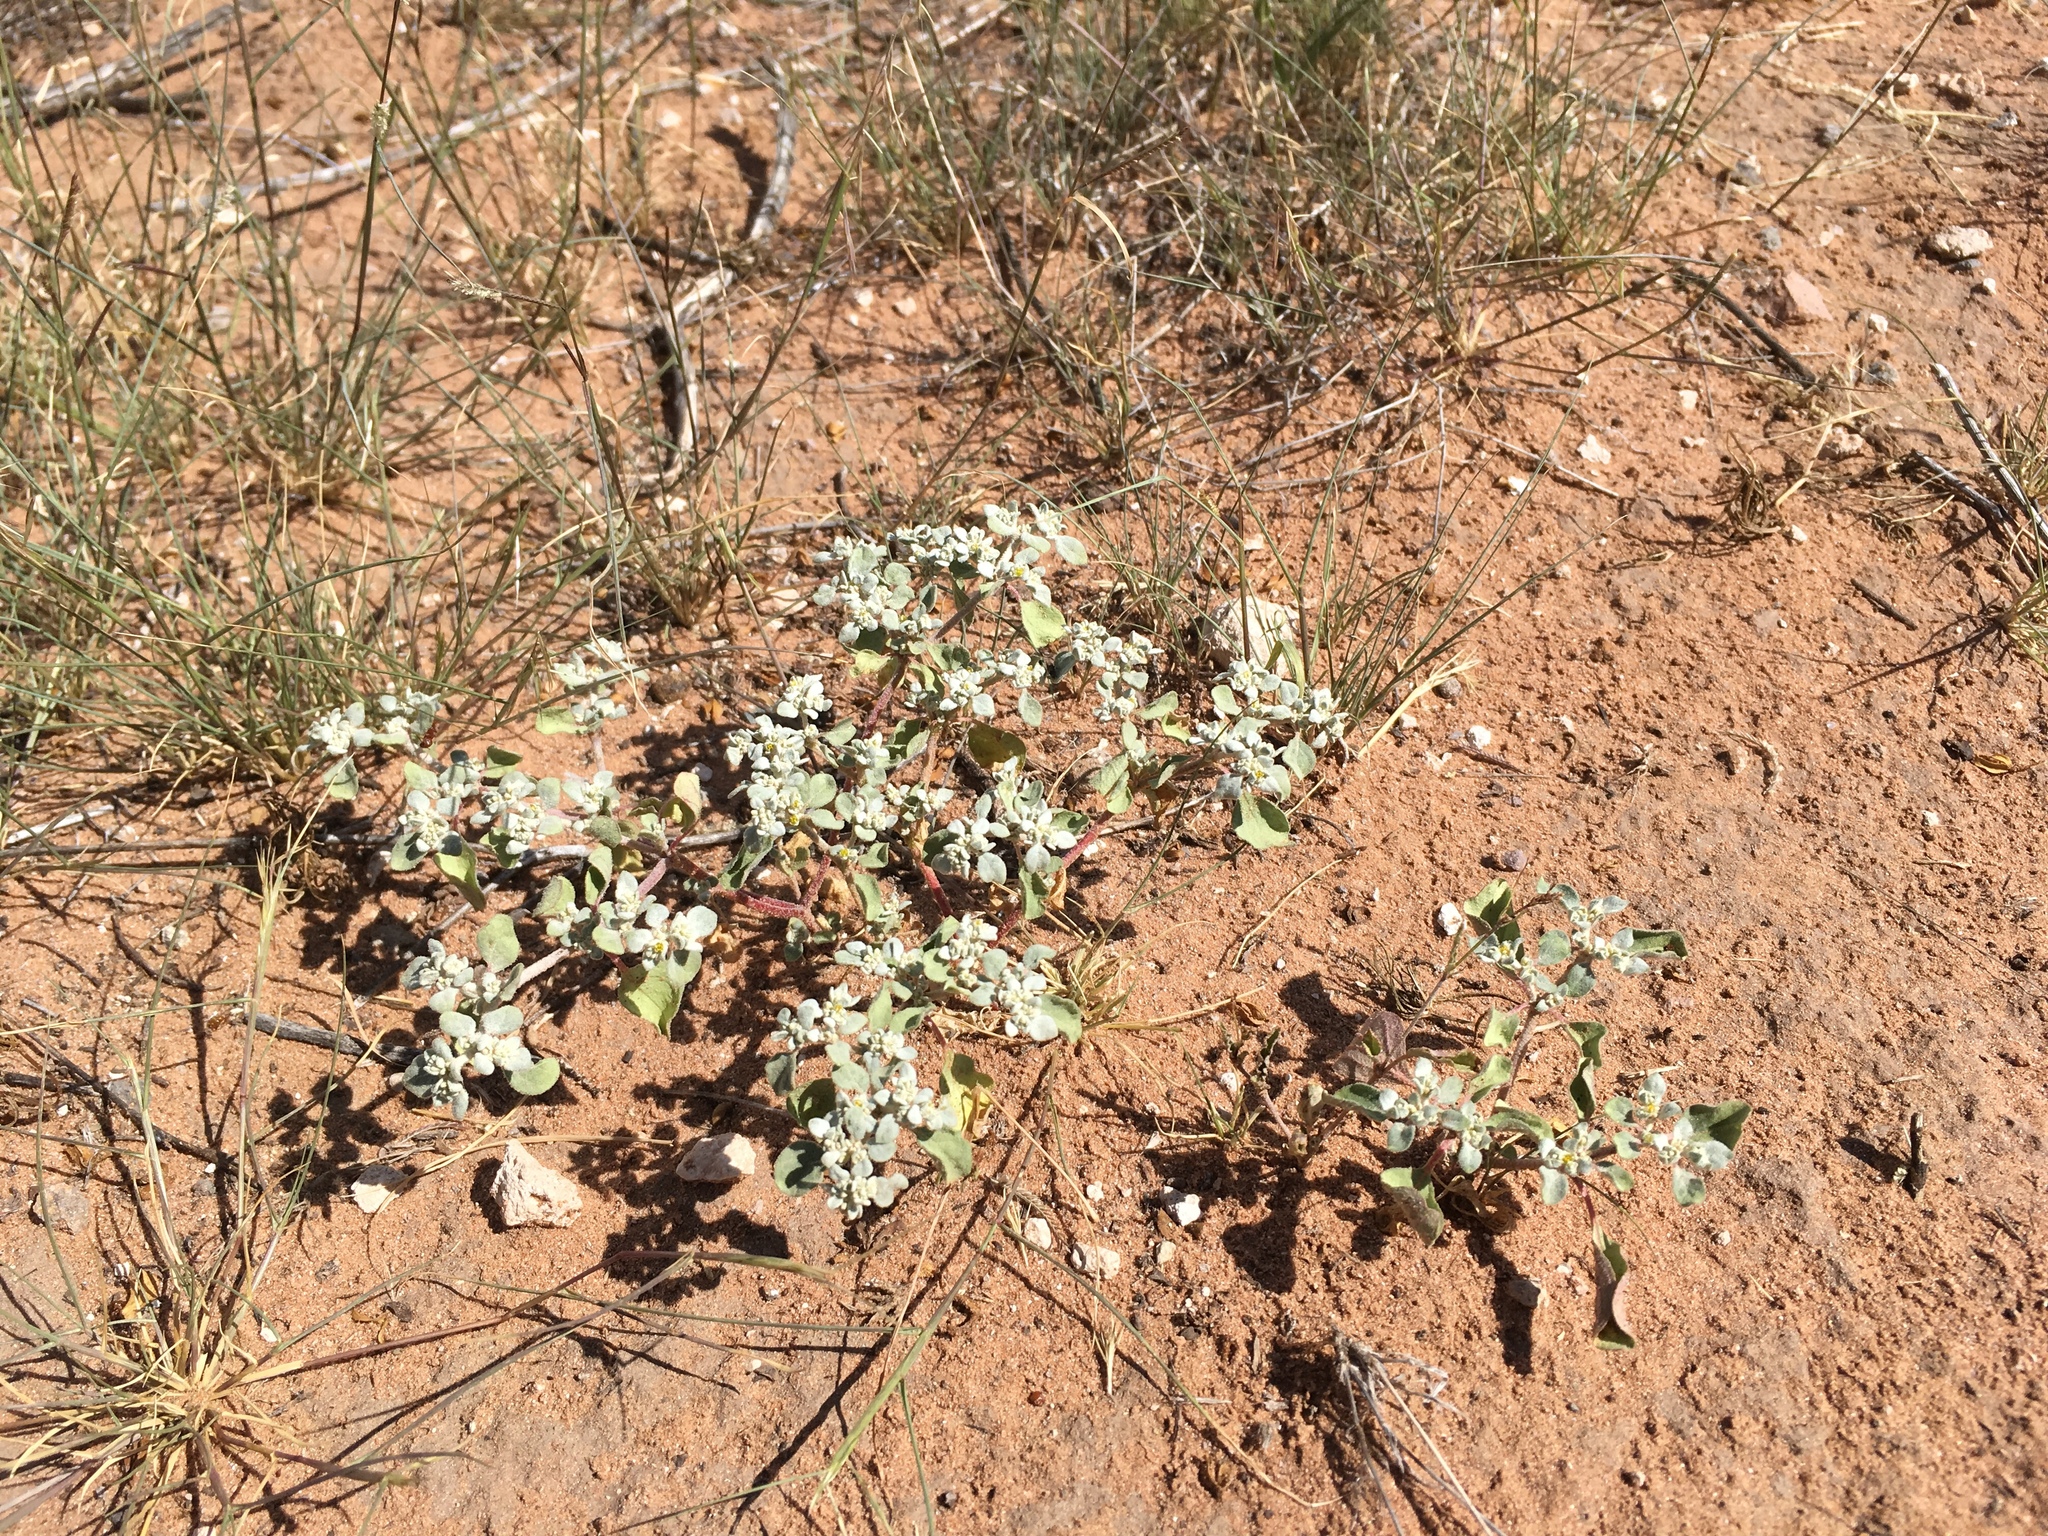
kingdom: Plantae
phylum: Tracheophyta
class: Magnoliopsida
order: Caryophyllales
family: Amaranthaceae
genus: Tidestromia
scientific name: Tidestromia lanuginosa
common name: Woolly tidestromia
